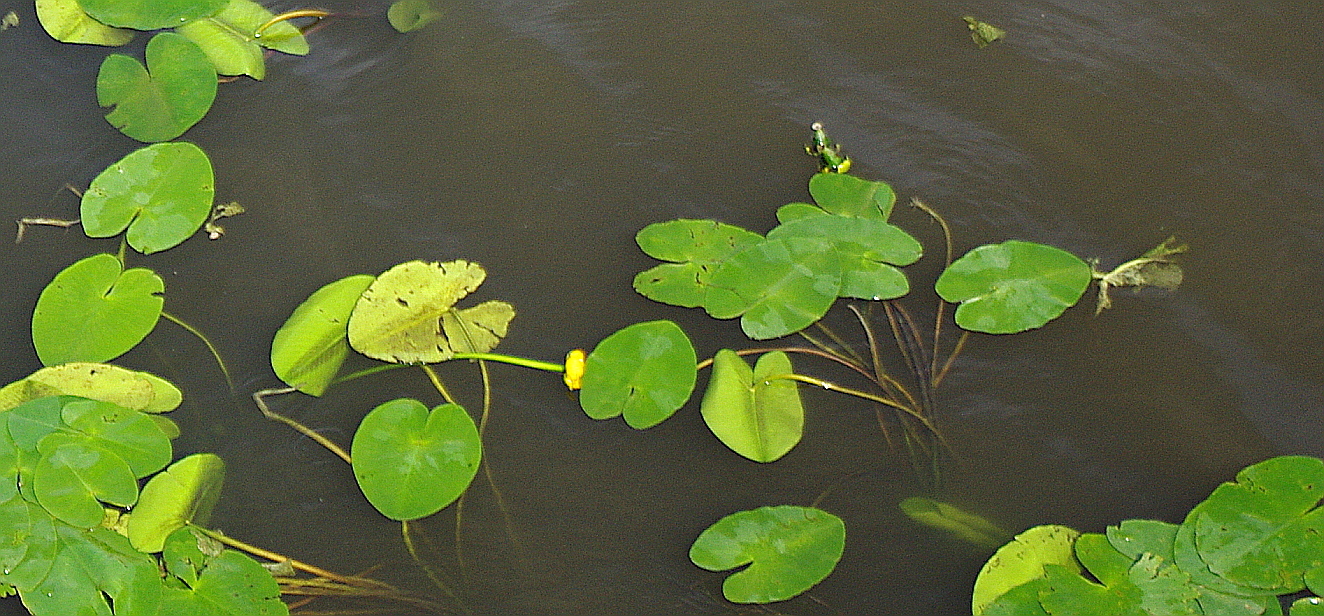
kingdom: Plantae
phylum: Tracheophyta
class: Magnoliopsida
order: Nymphaeales
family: Nymphaeaceae
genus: Nuphar
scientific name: Nuphar lutea
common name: Yellow water-lily
